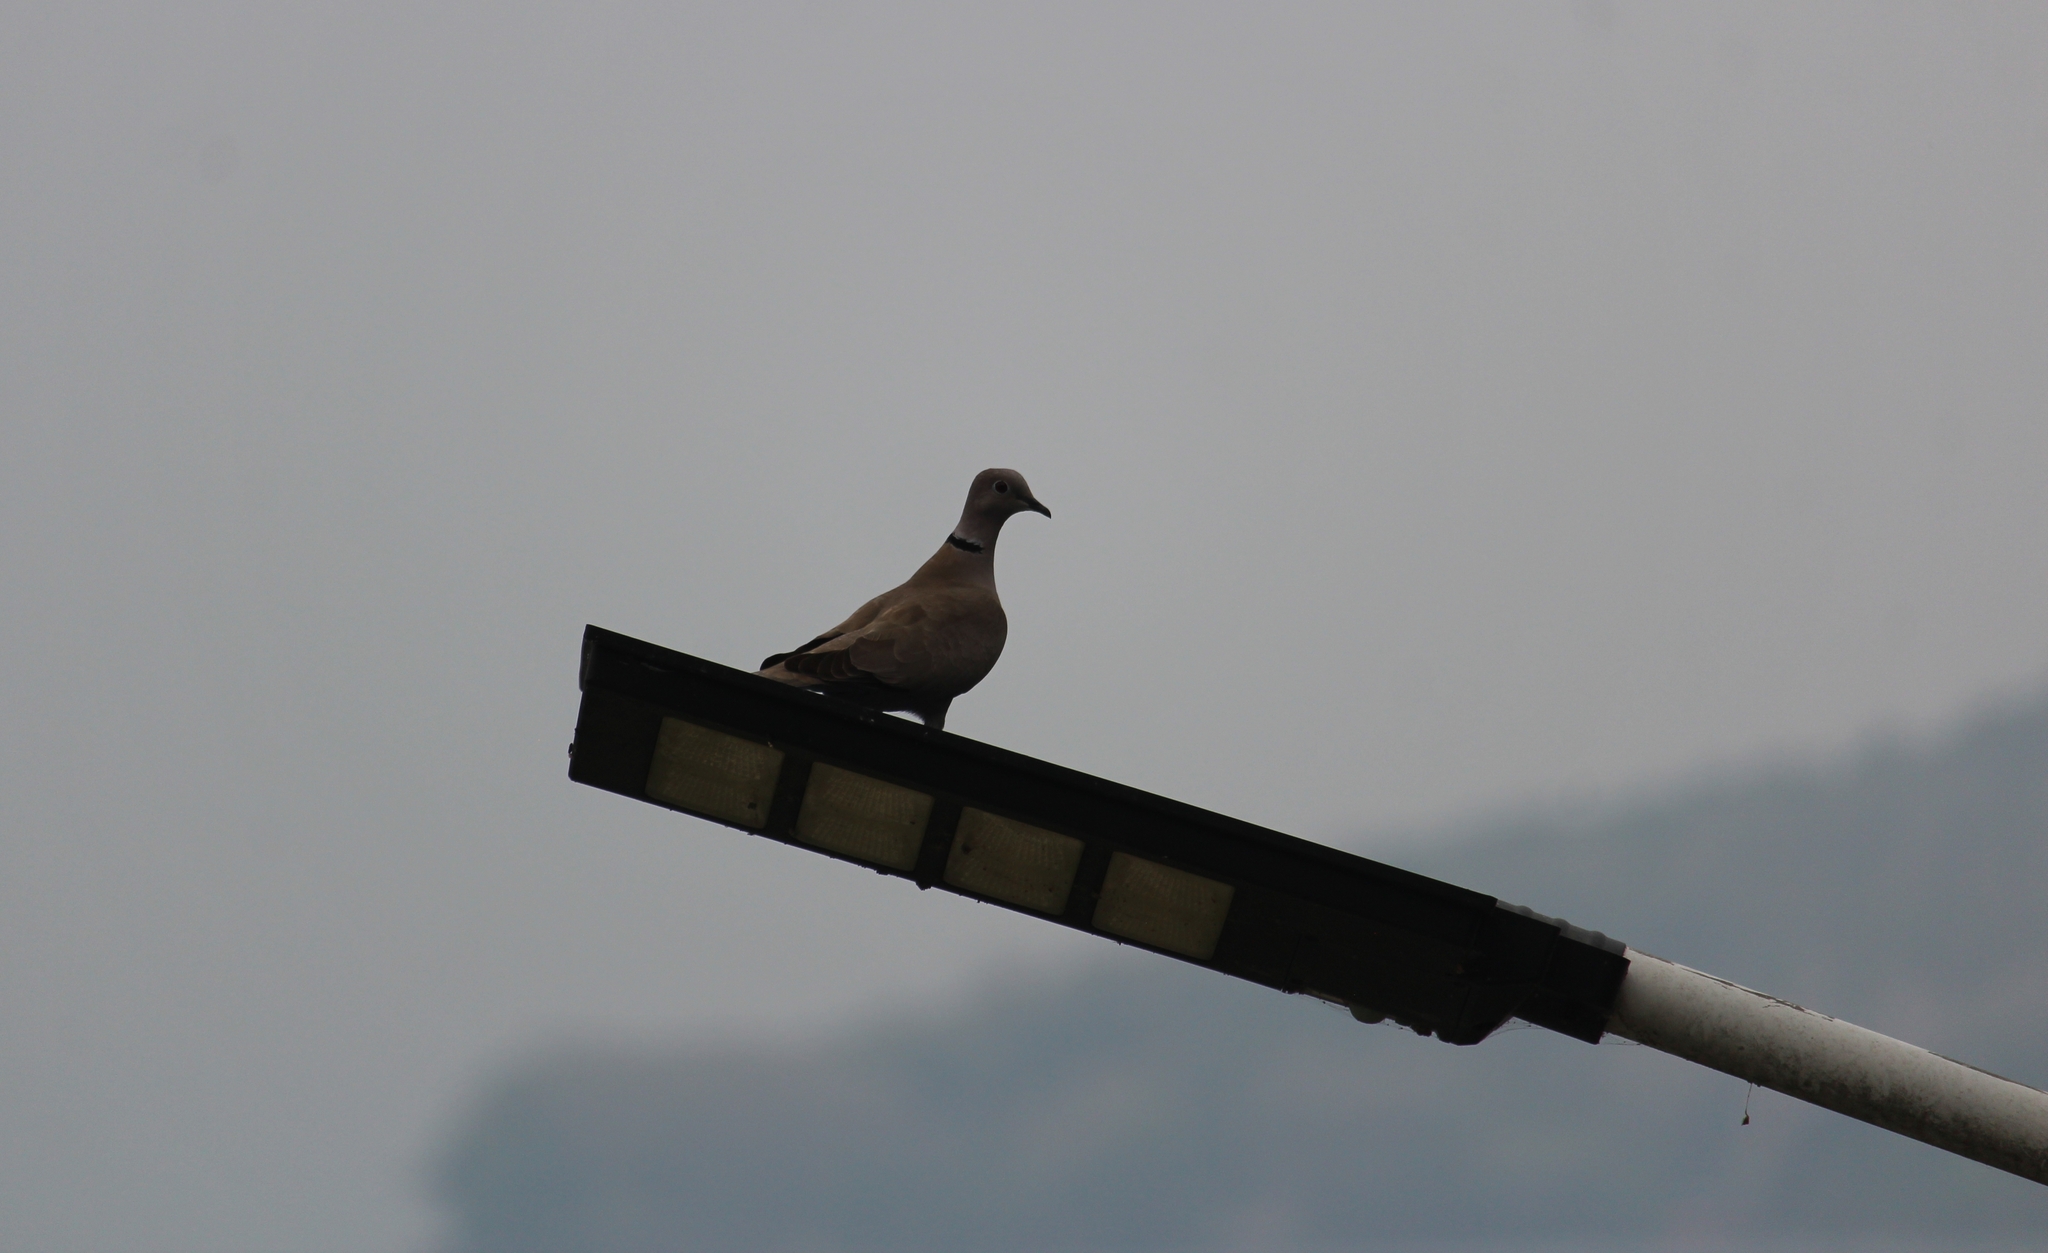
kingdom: Animalia
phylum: Chordata
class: Aves
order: Columbiformes
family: Columbidae
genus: Streptopelia
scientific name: Streptopelia decaocto
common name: Eurasian collared dove
